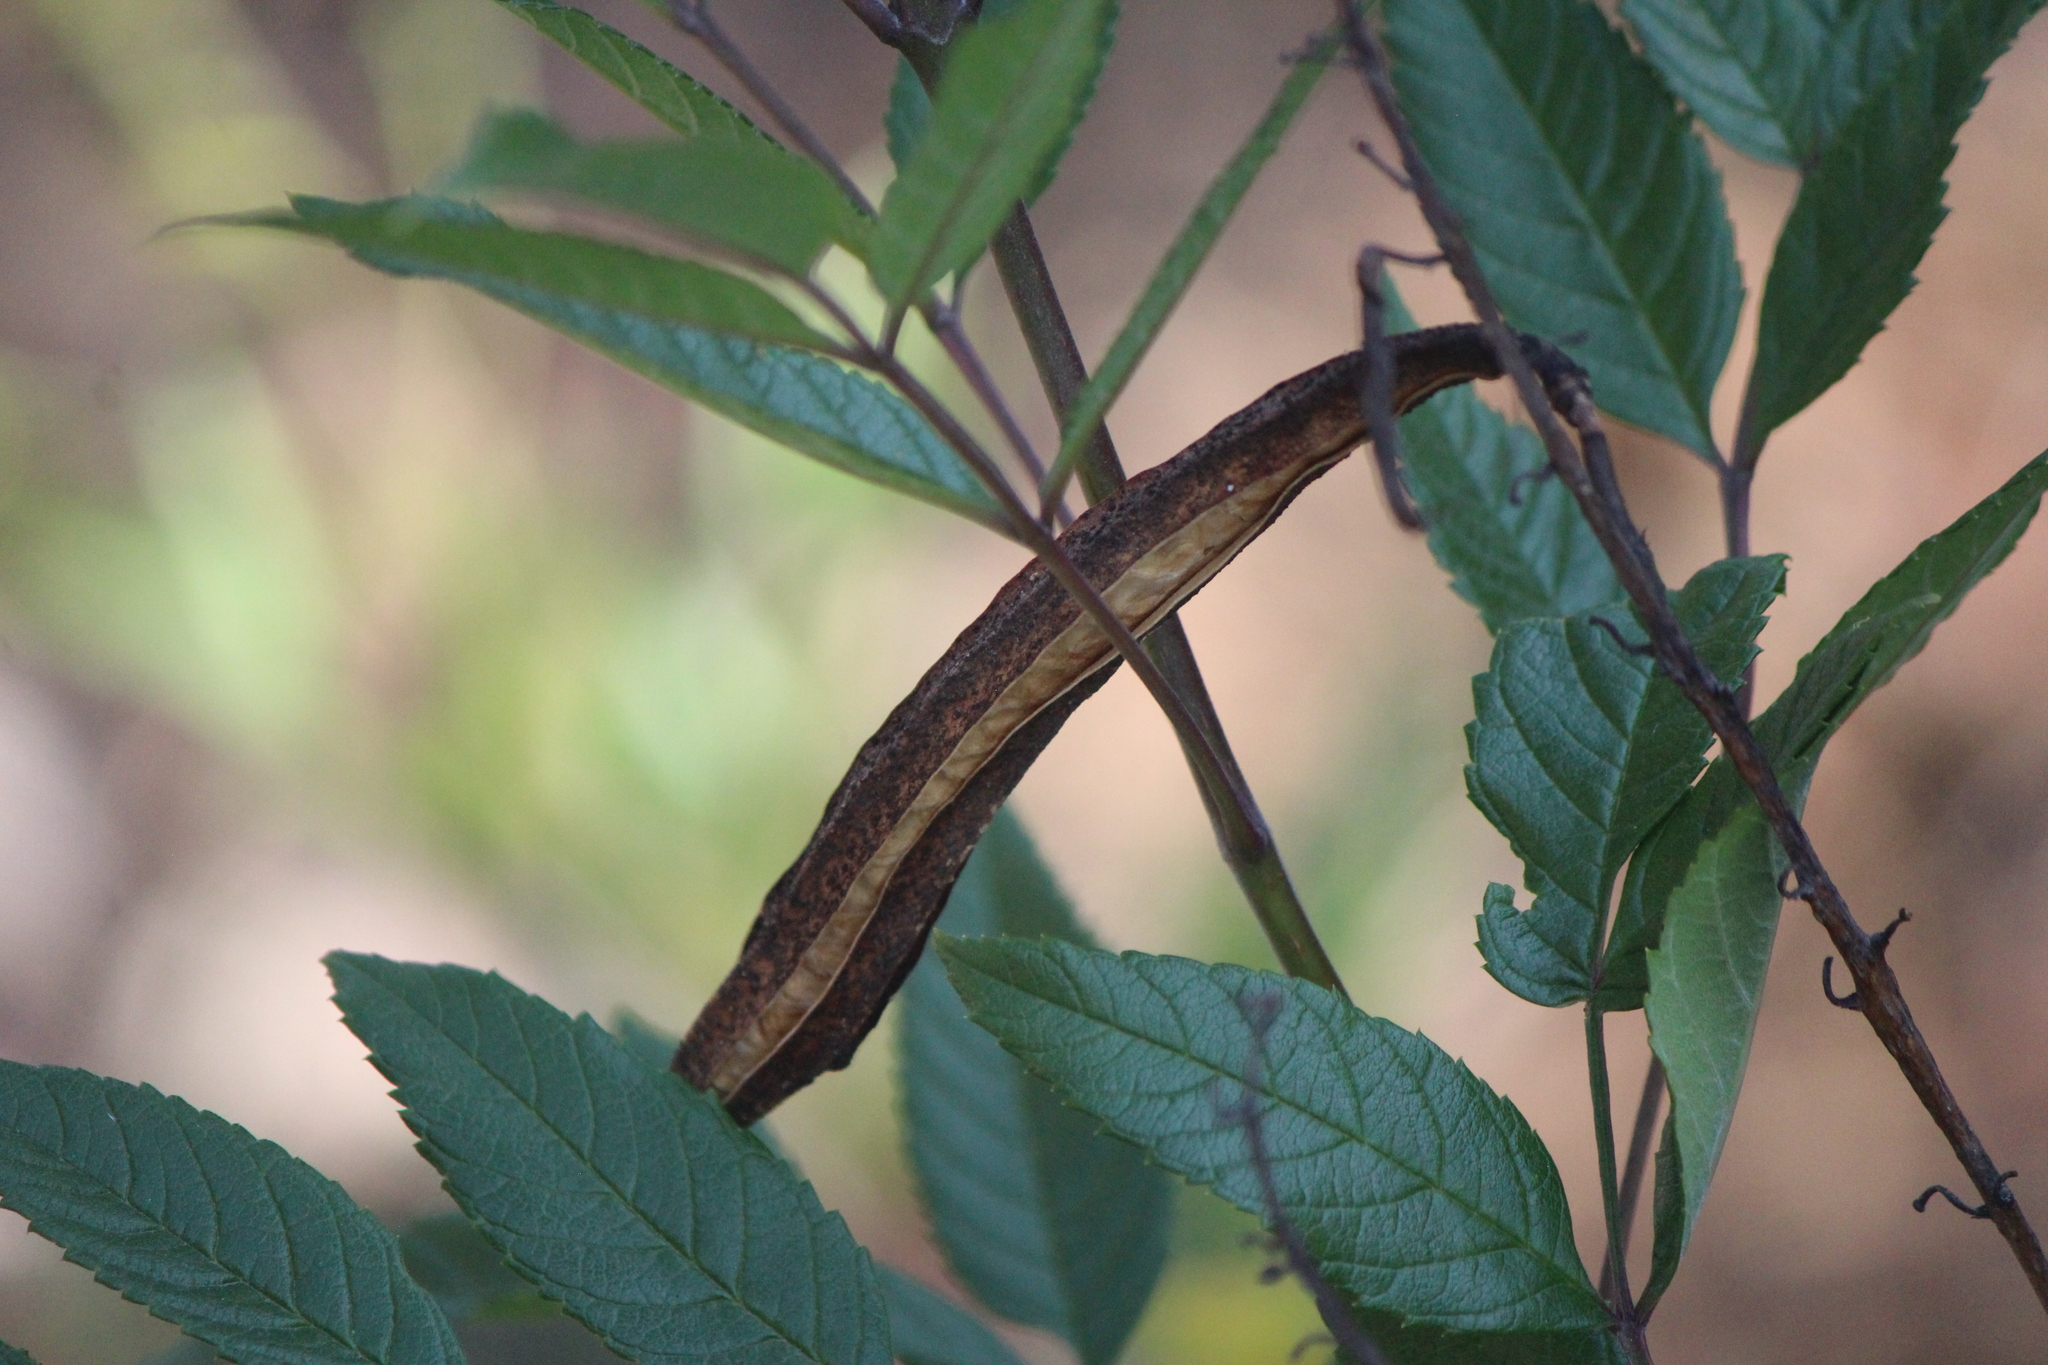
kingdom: Plantae
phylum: Tracheophyta
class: Magnoliopsida
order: Lamiales
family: Bignoniaceae
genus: Tecoma
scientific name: Tecoma stans
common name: Yellow trumpetbush
